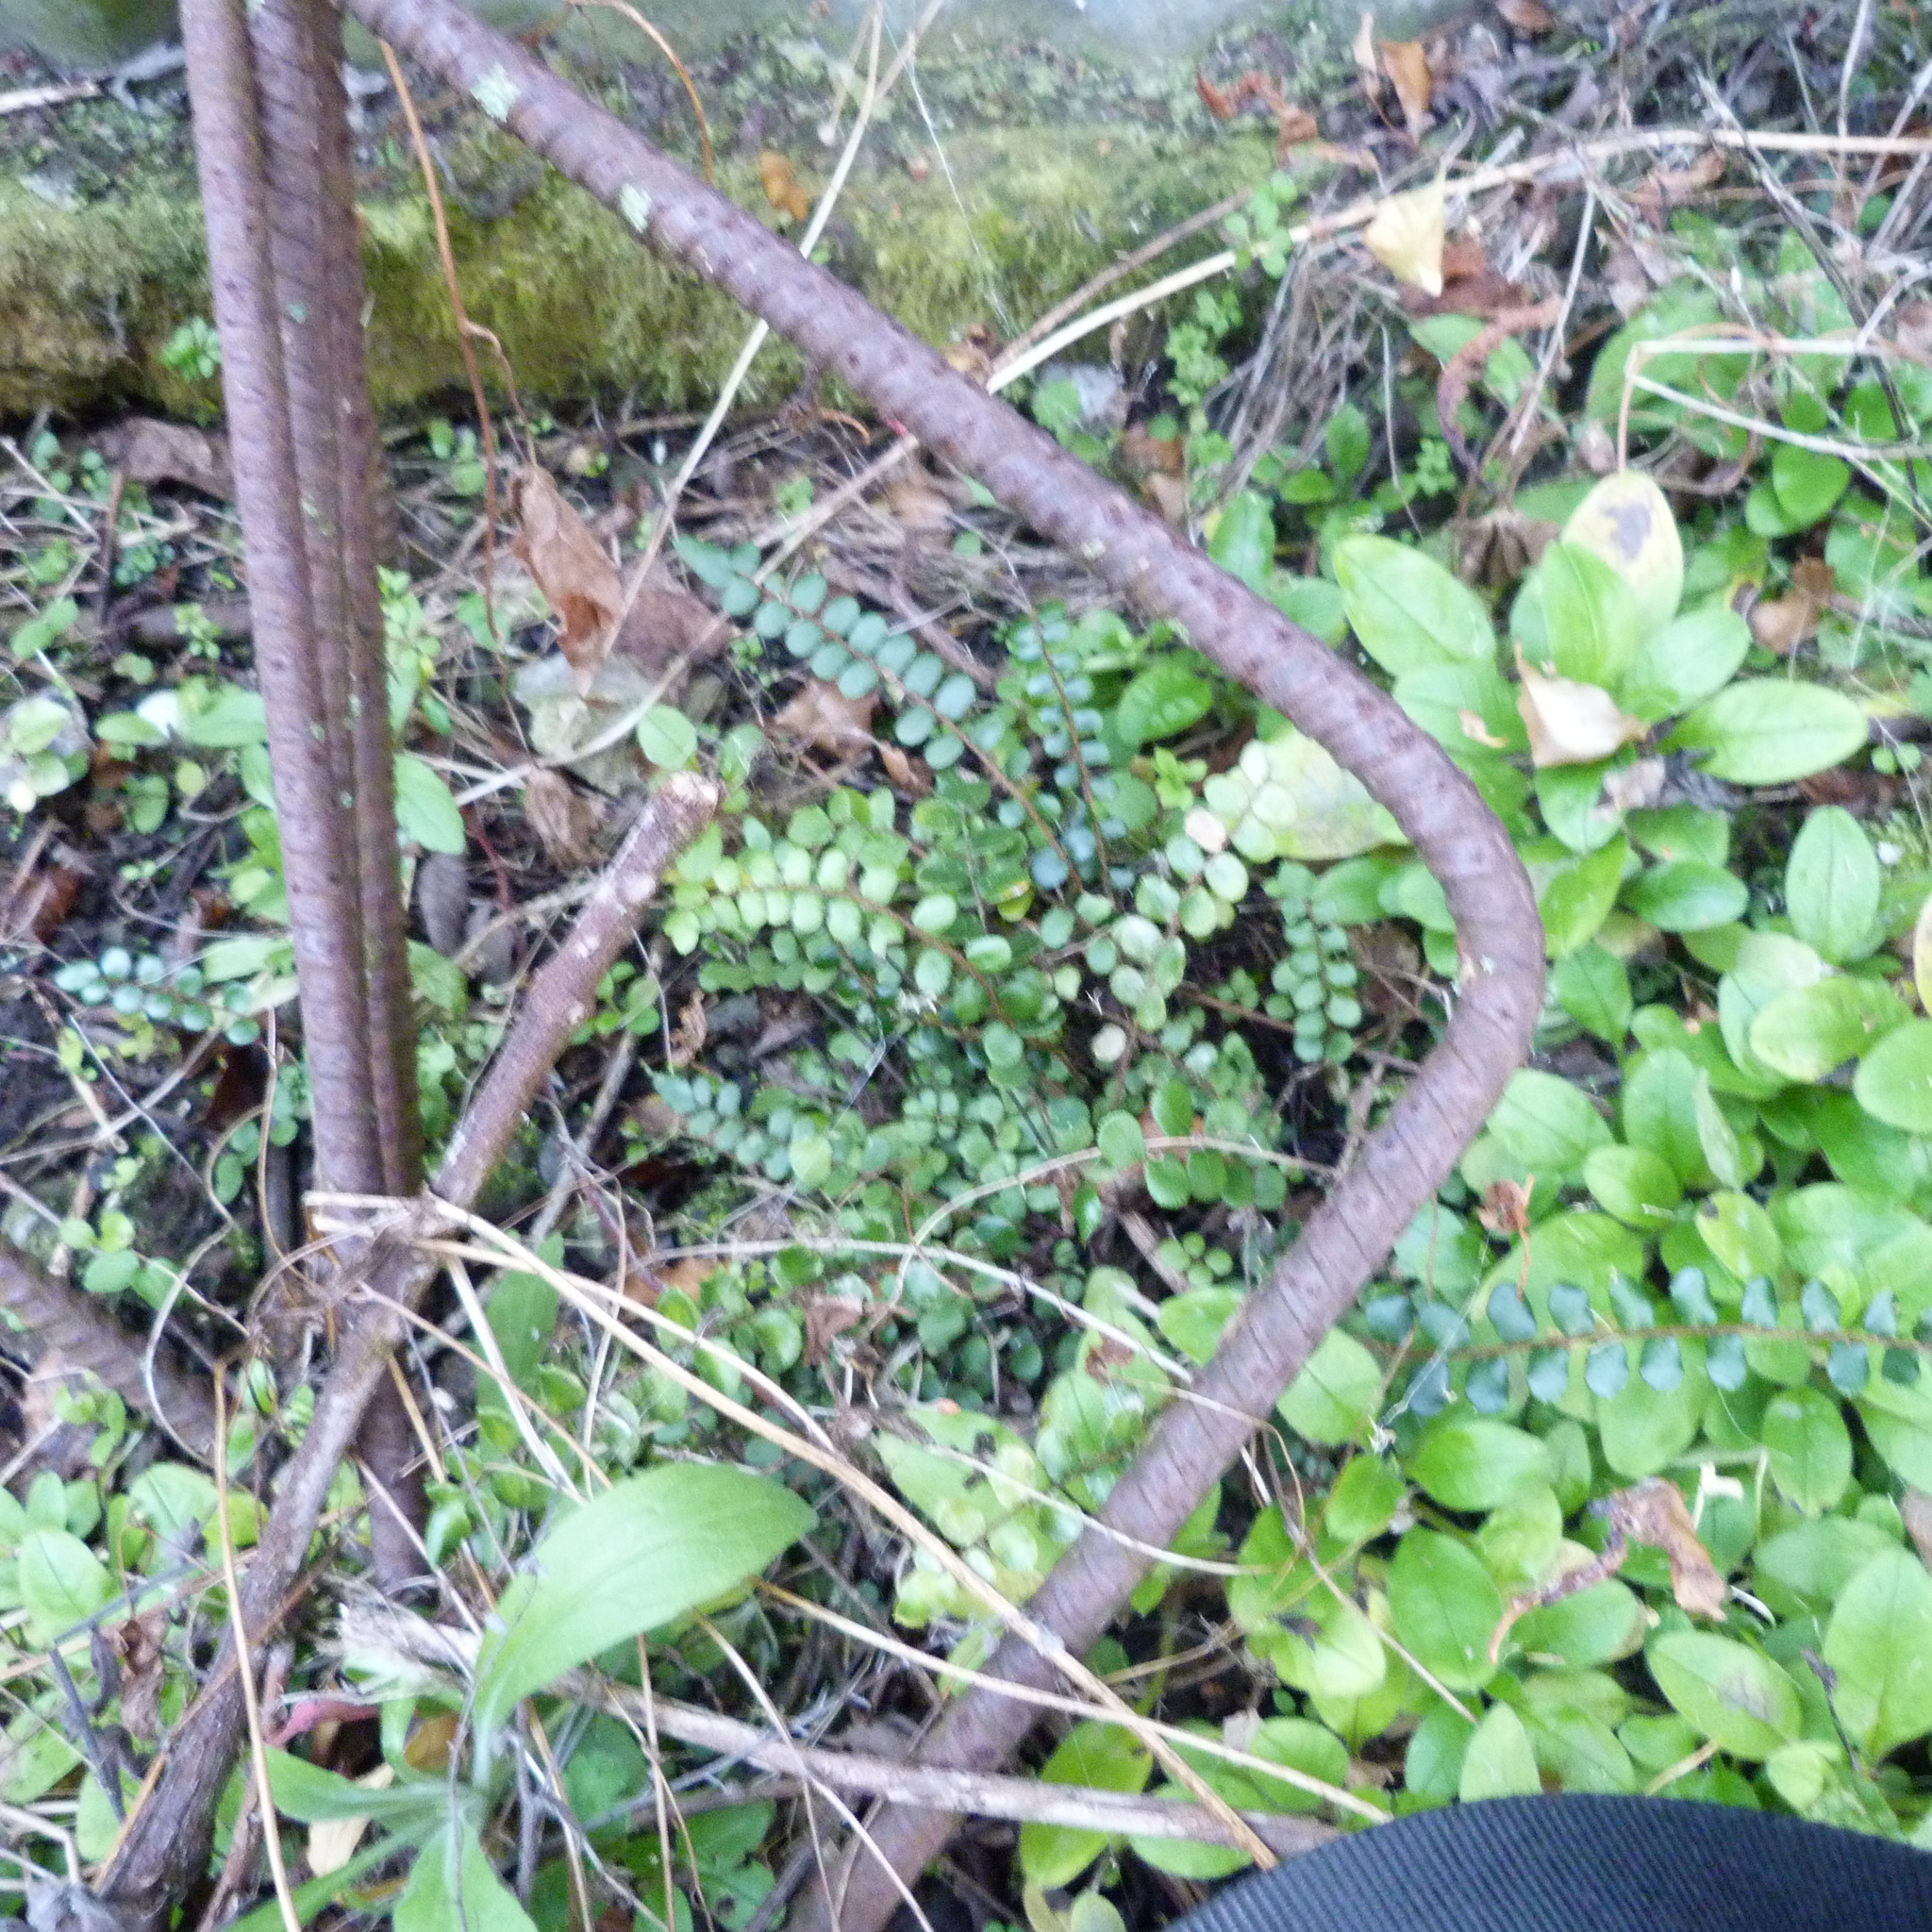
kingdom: Plantae
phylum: Tracheophyta
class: Polypodiopsida
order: Polypodiales
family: Pteridaceae
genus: Pellaea
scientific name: Pellaea rotundifolia
